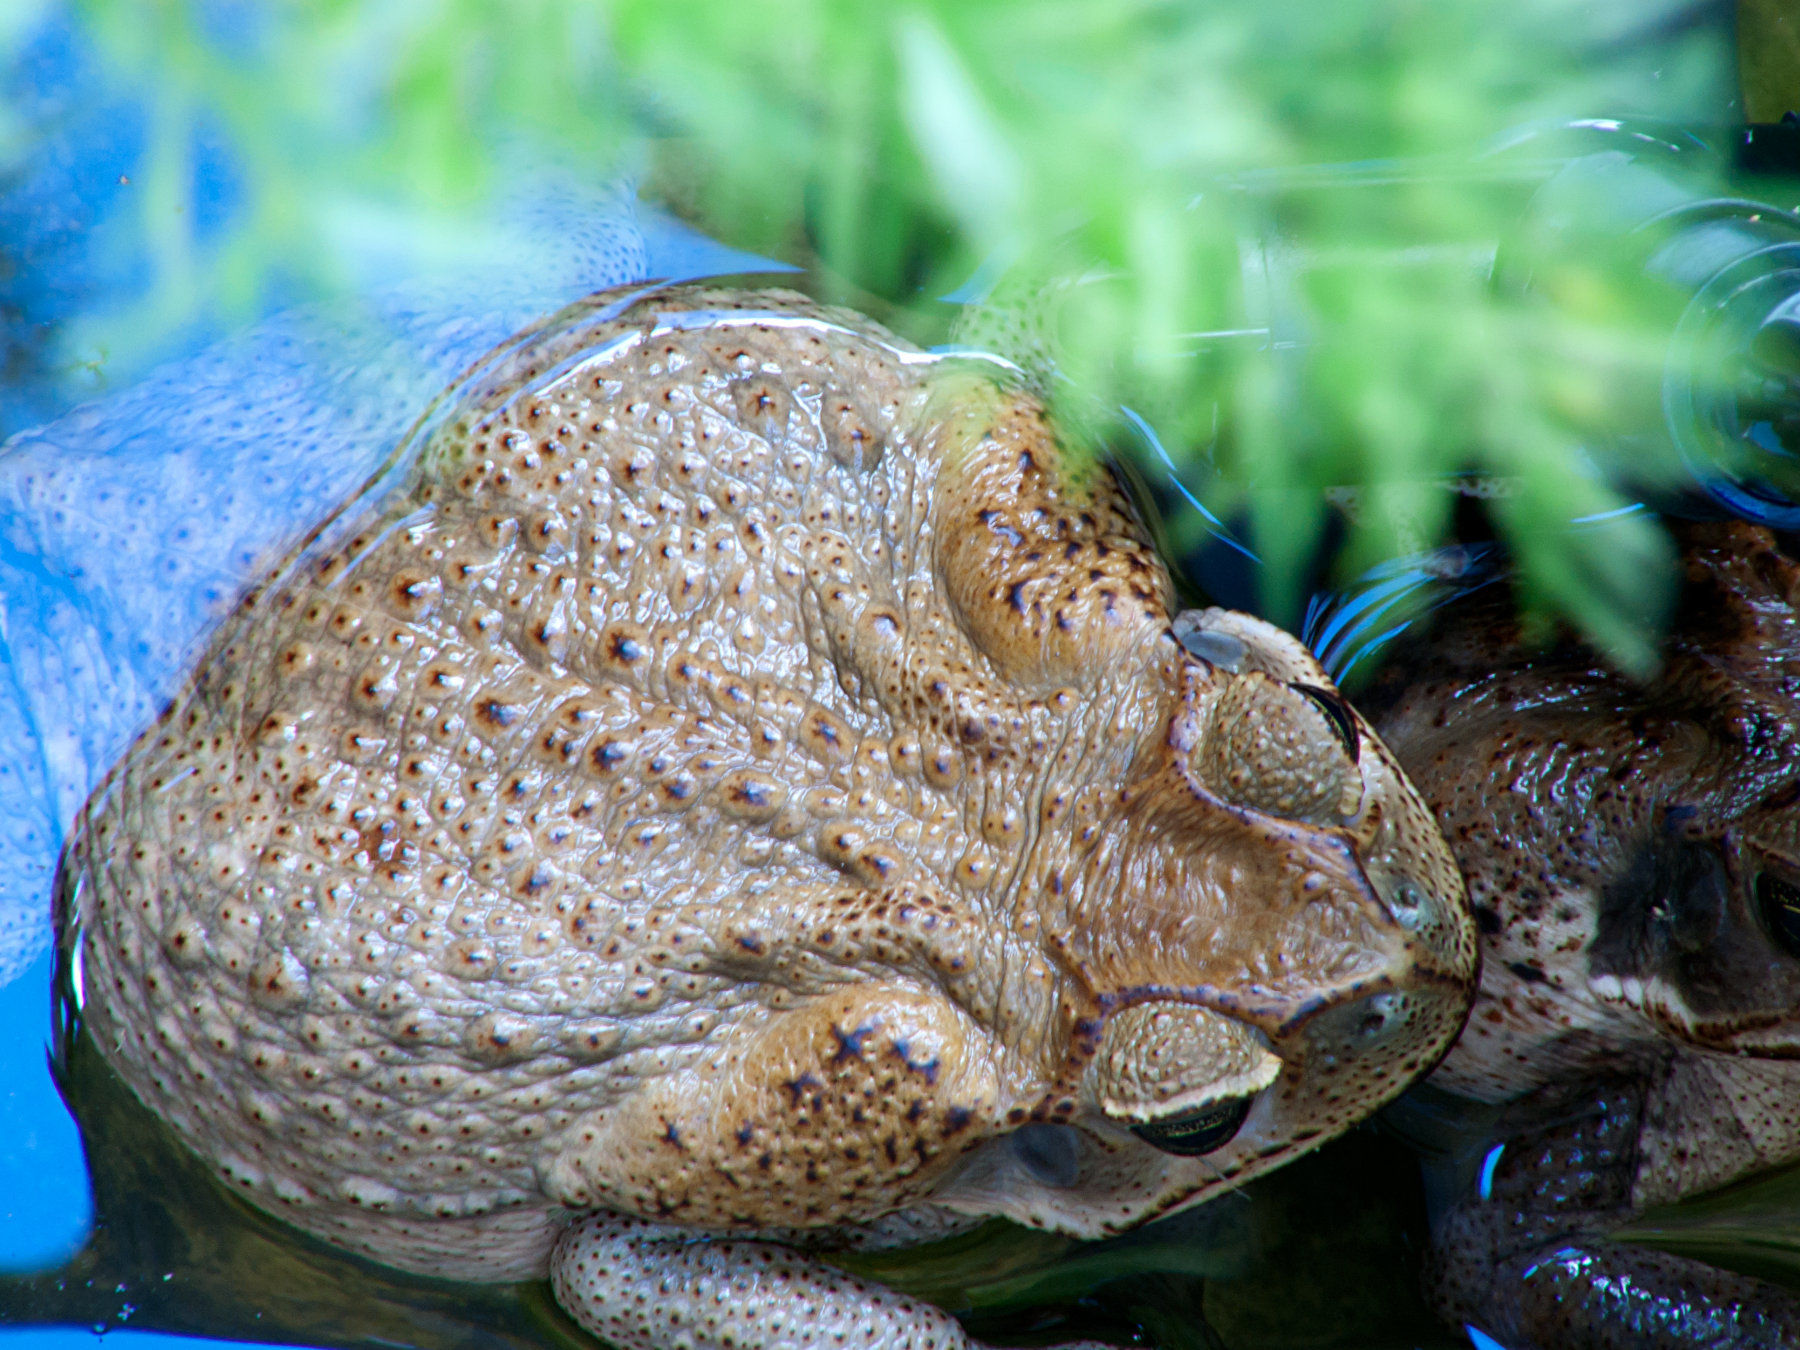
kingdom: Animalia
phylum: Chordata
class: Amphibia
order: Anura
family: Bufonidae
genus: Rhinella
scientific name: Rhinella horribilis
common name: Mesoamerican cane toad
